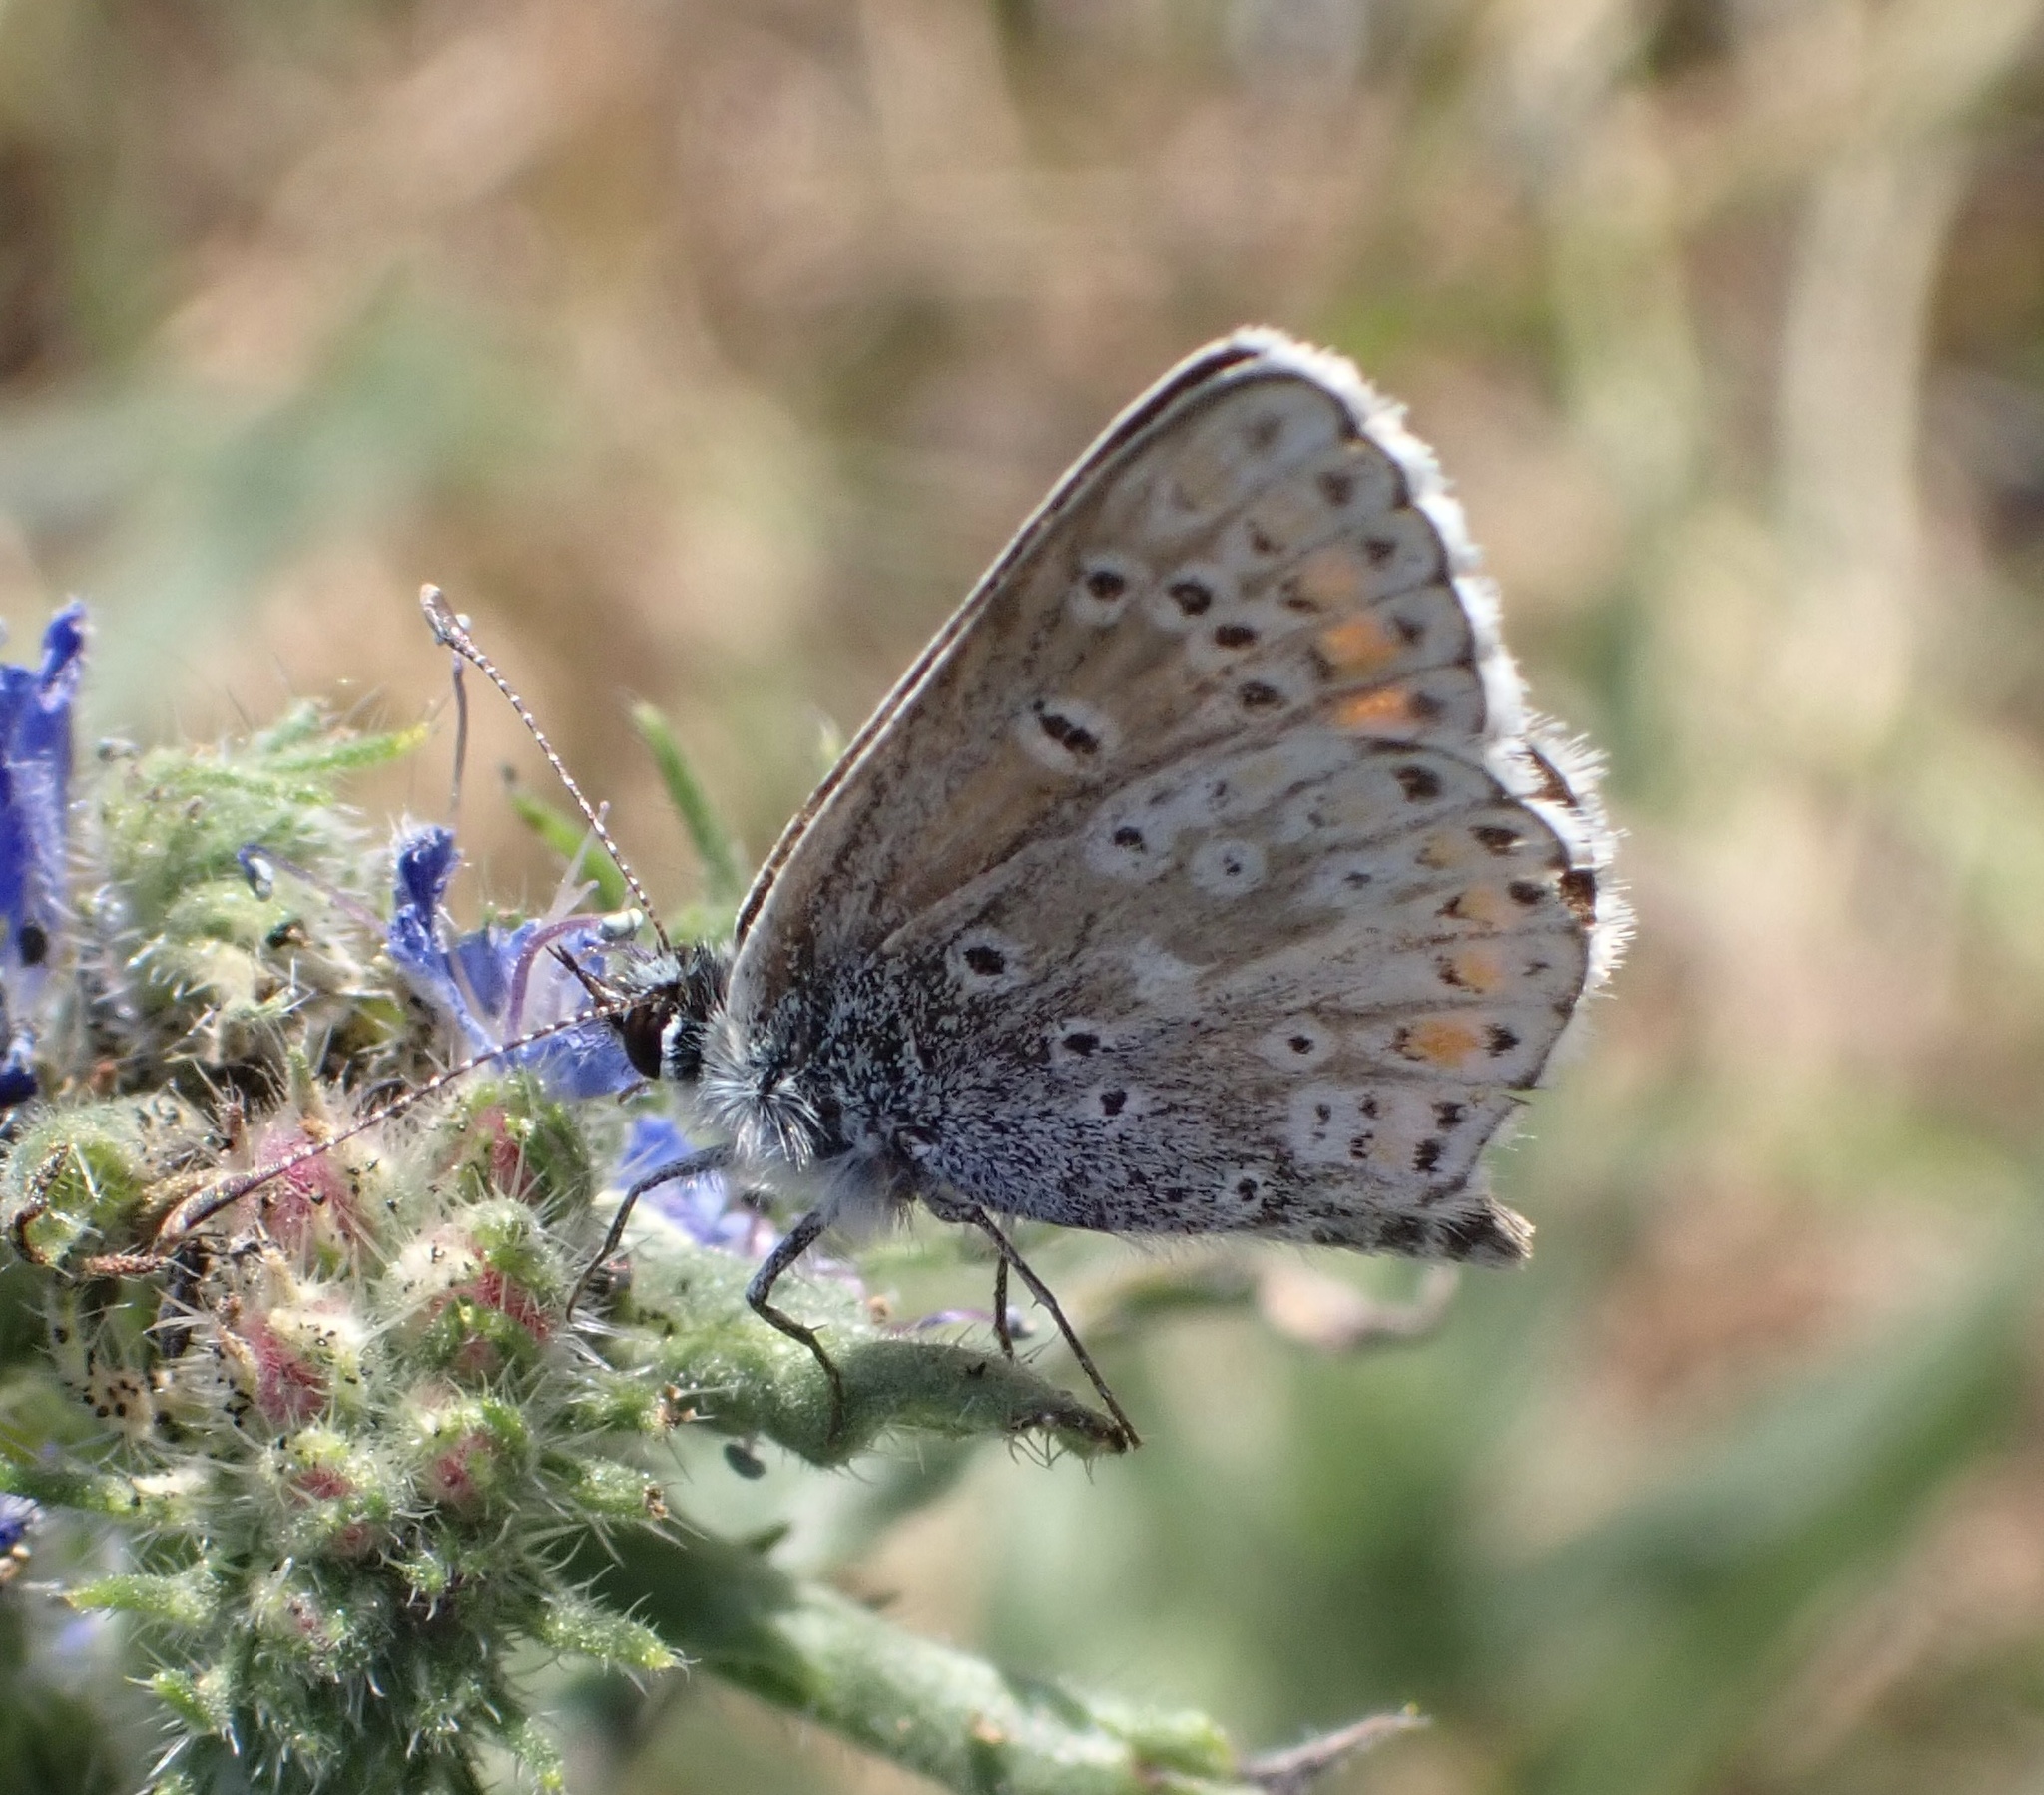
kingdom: Animalia
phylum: Arthropoda
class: Insecta
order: Lepidoptera
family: Lycaenidae
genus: Aricia
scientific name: Aricia agestis
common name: Brown argus
